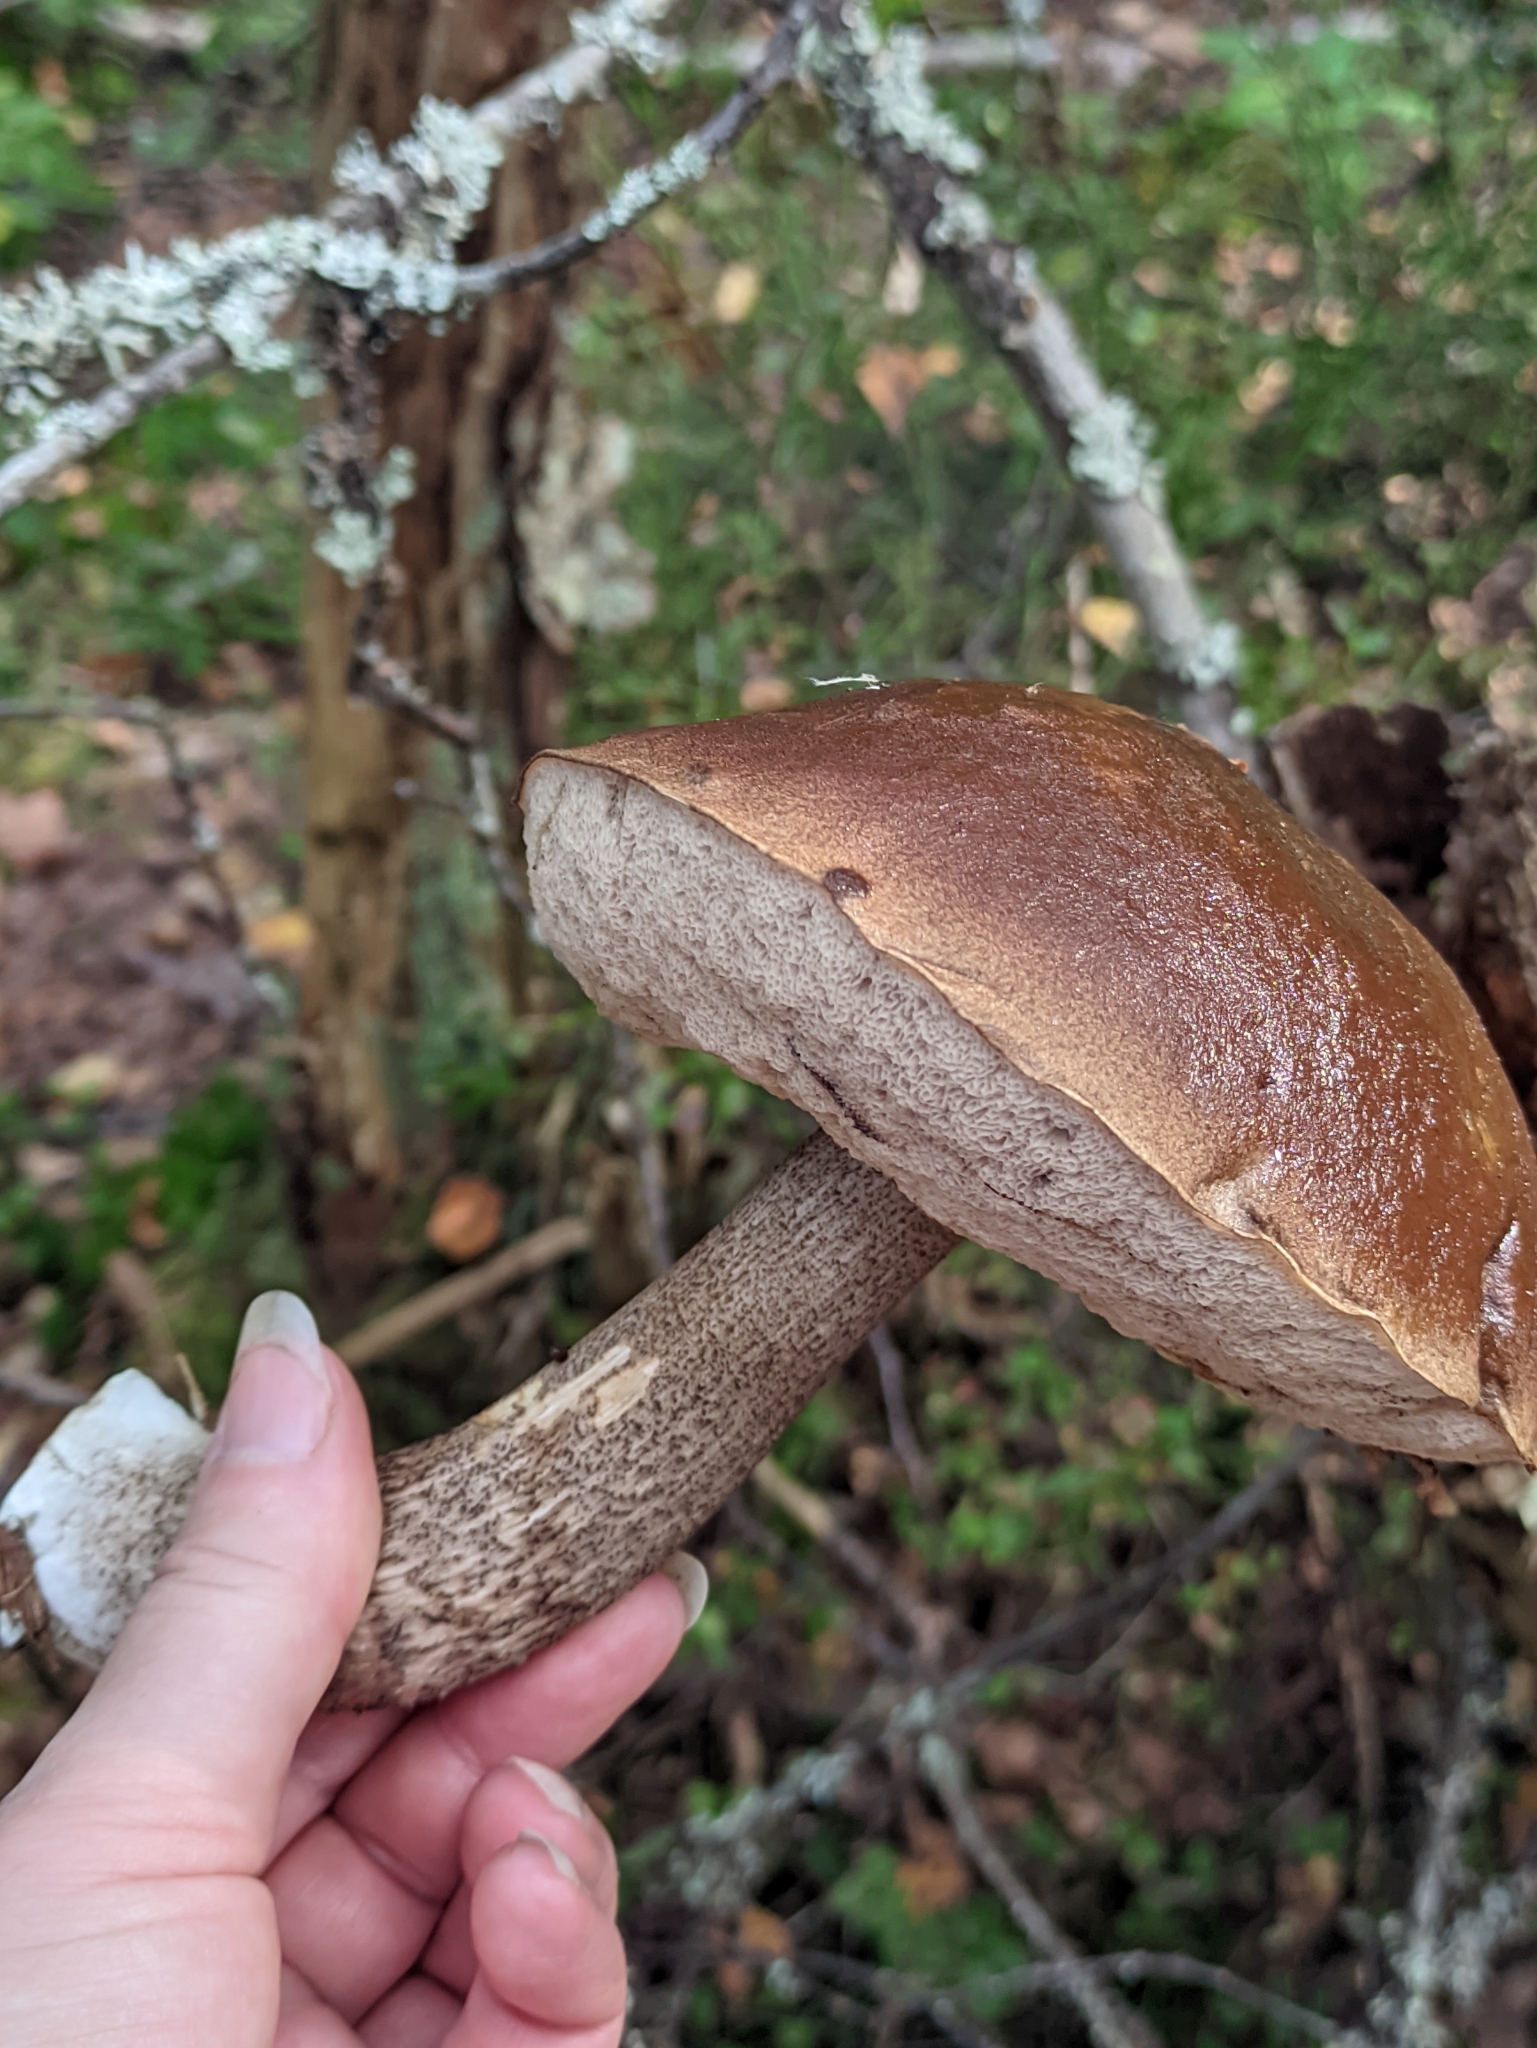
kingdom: Fungi
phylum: Basidiomycota
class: Agaricomycetes
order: Boletales
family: Boletaceae
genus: Leccinum
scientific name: Leccinum scabrum
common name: Blushing bolete
